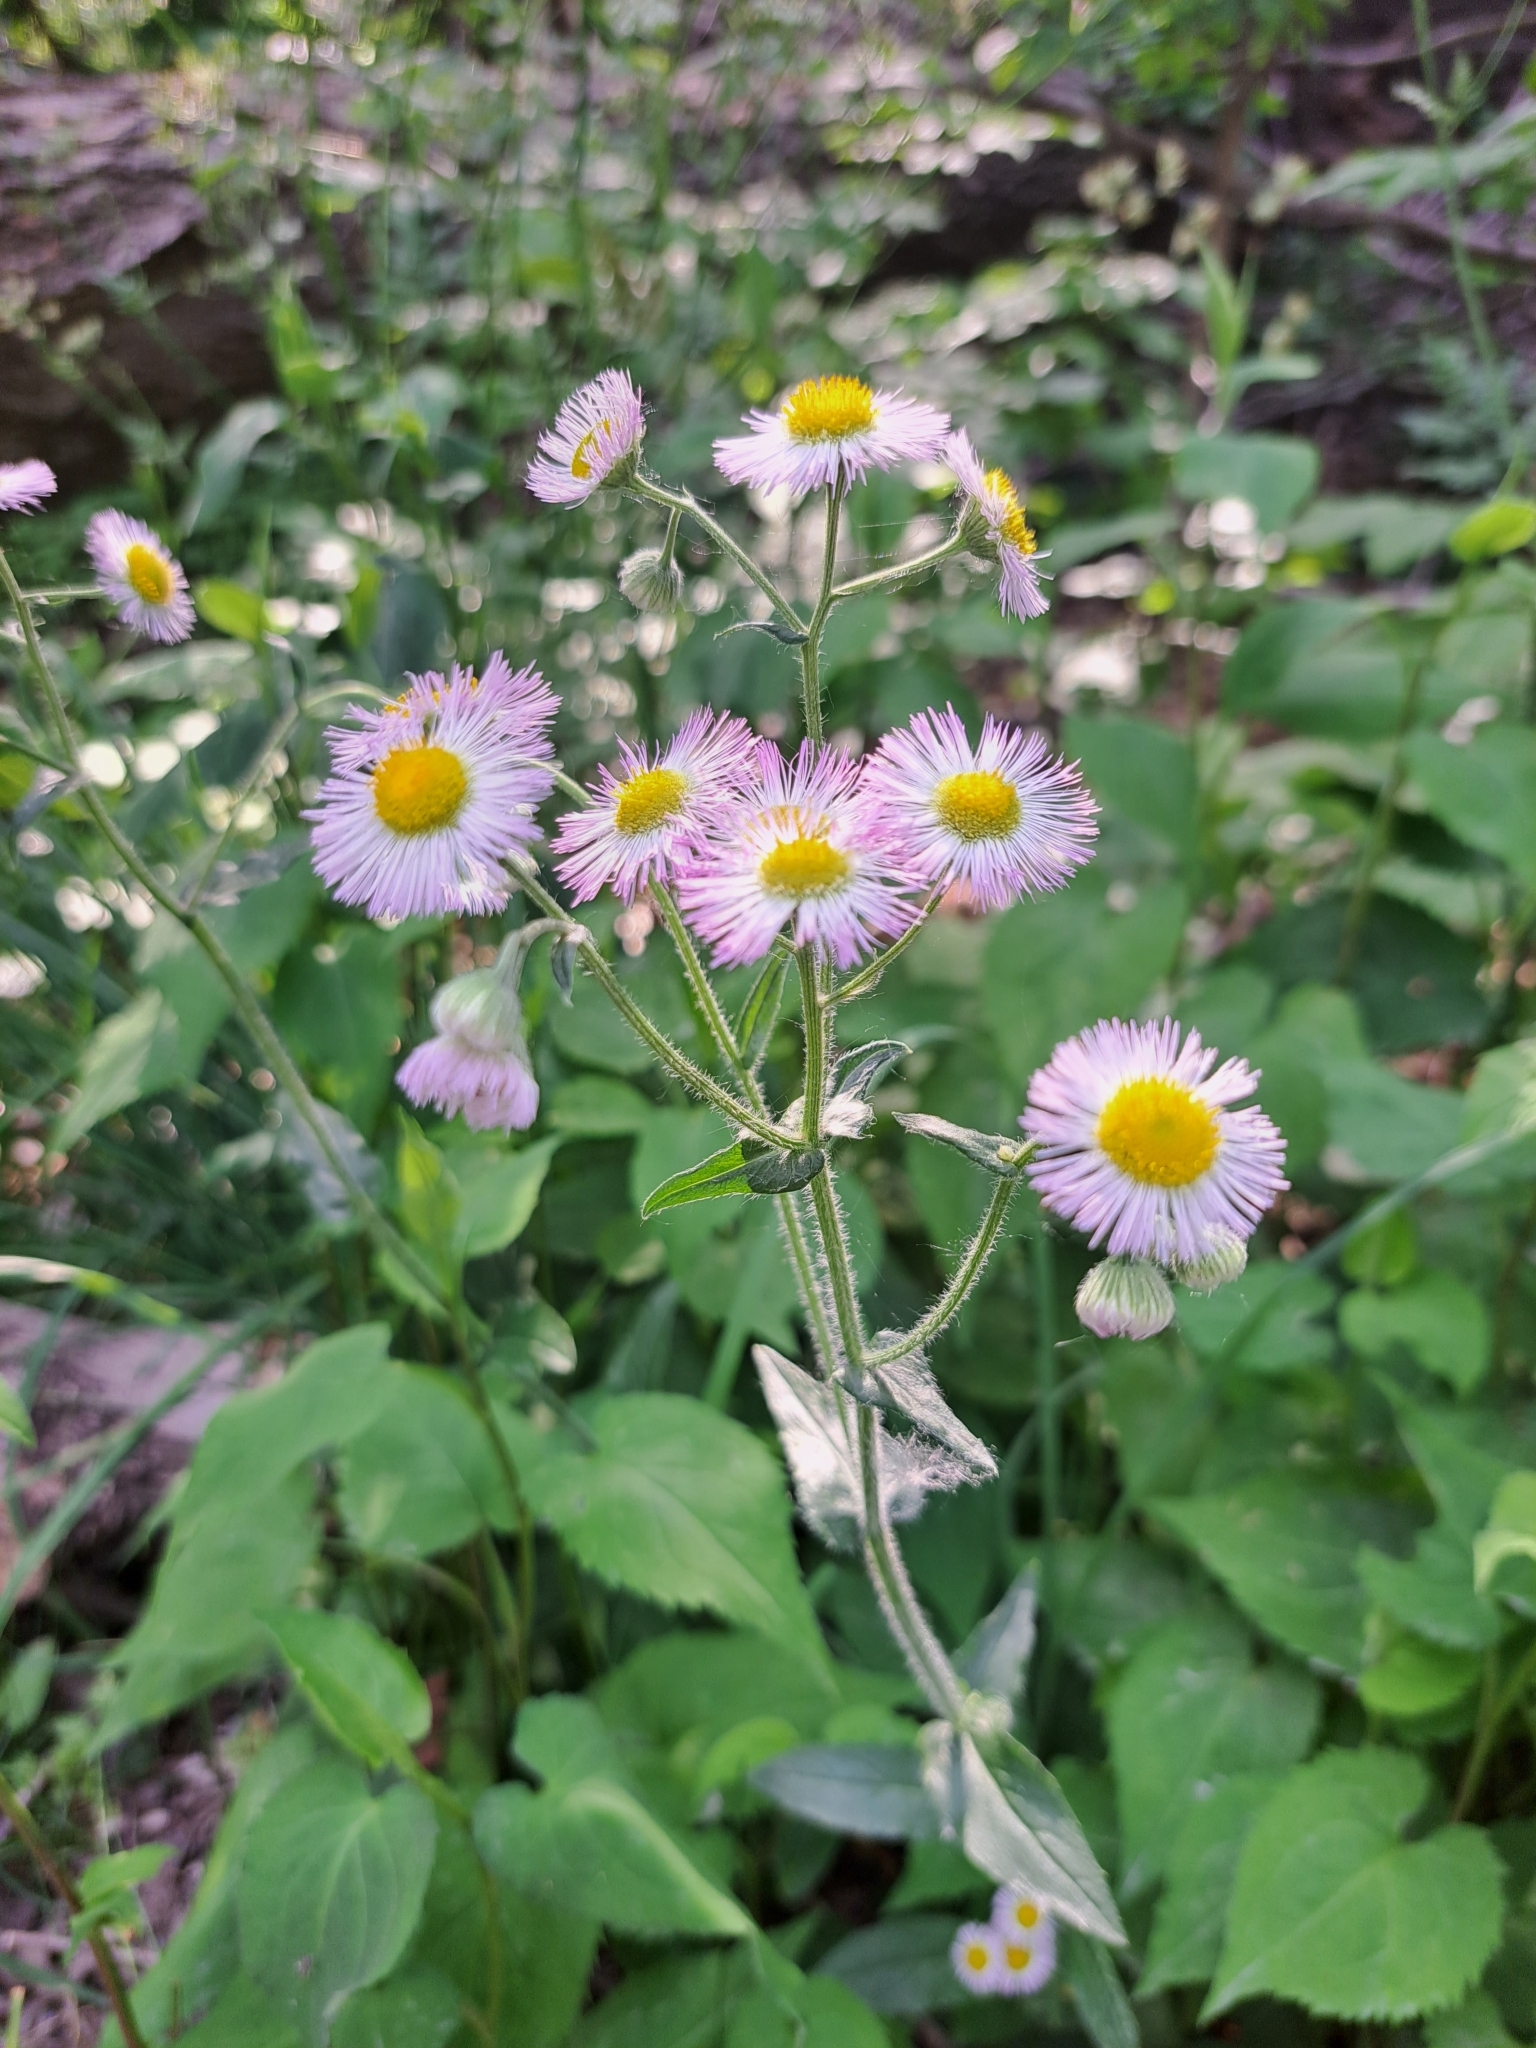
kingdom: Plantae
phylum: Tracheophyta
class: Magnoliopsida
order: Asterales
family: Asteraceae
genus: Erigeron
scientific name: Erigeron philadelphicus
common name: Robin's-plantain
